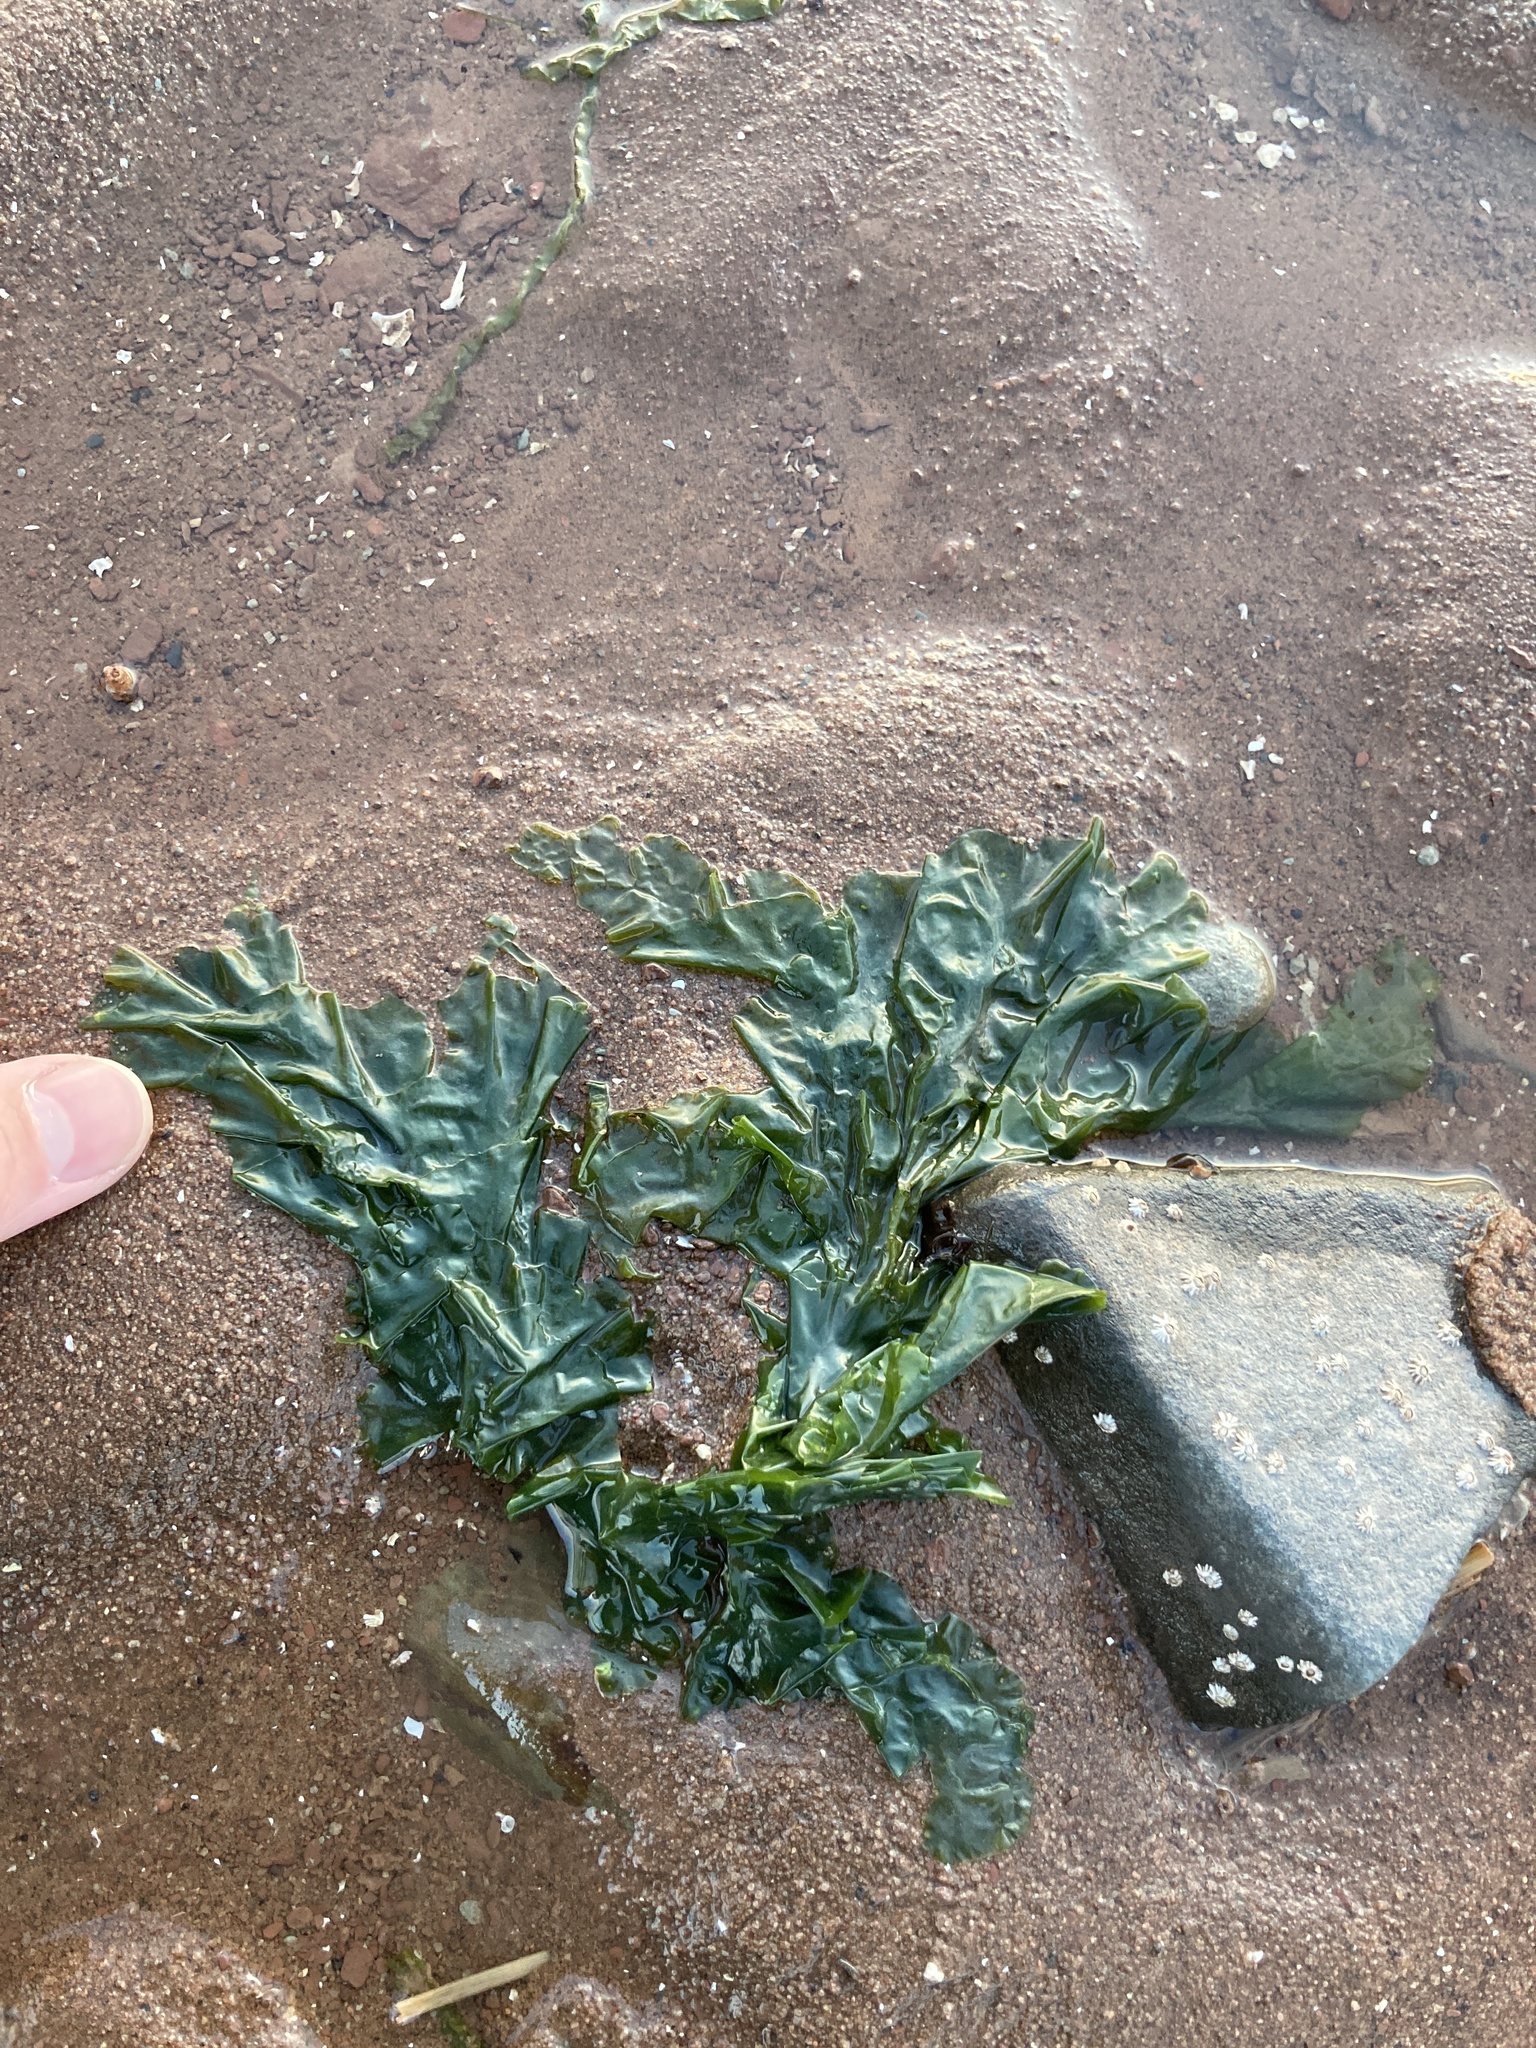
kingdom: Plantae
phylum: Chlorophyta
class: Ulvophyceae
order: Ulvales
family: Ulvaceae
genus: Ulva
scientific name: Ulva lactuca
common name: Sea lettuce
